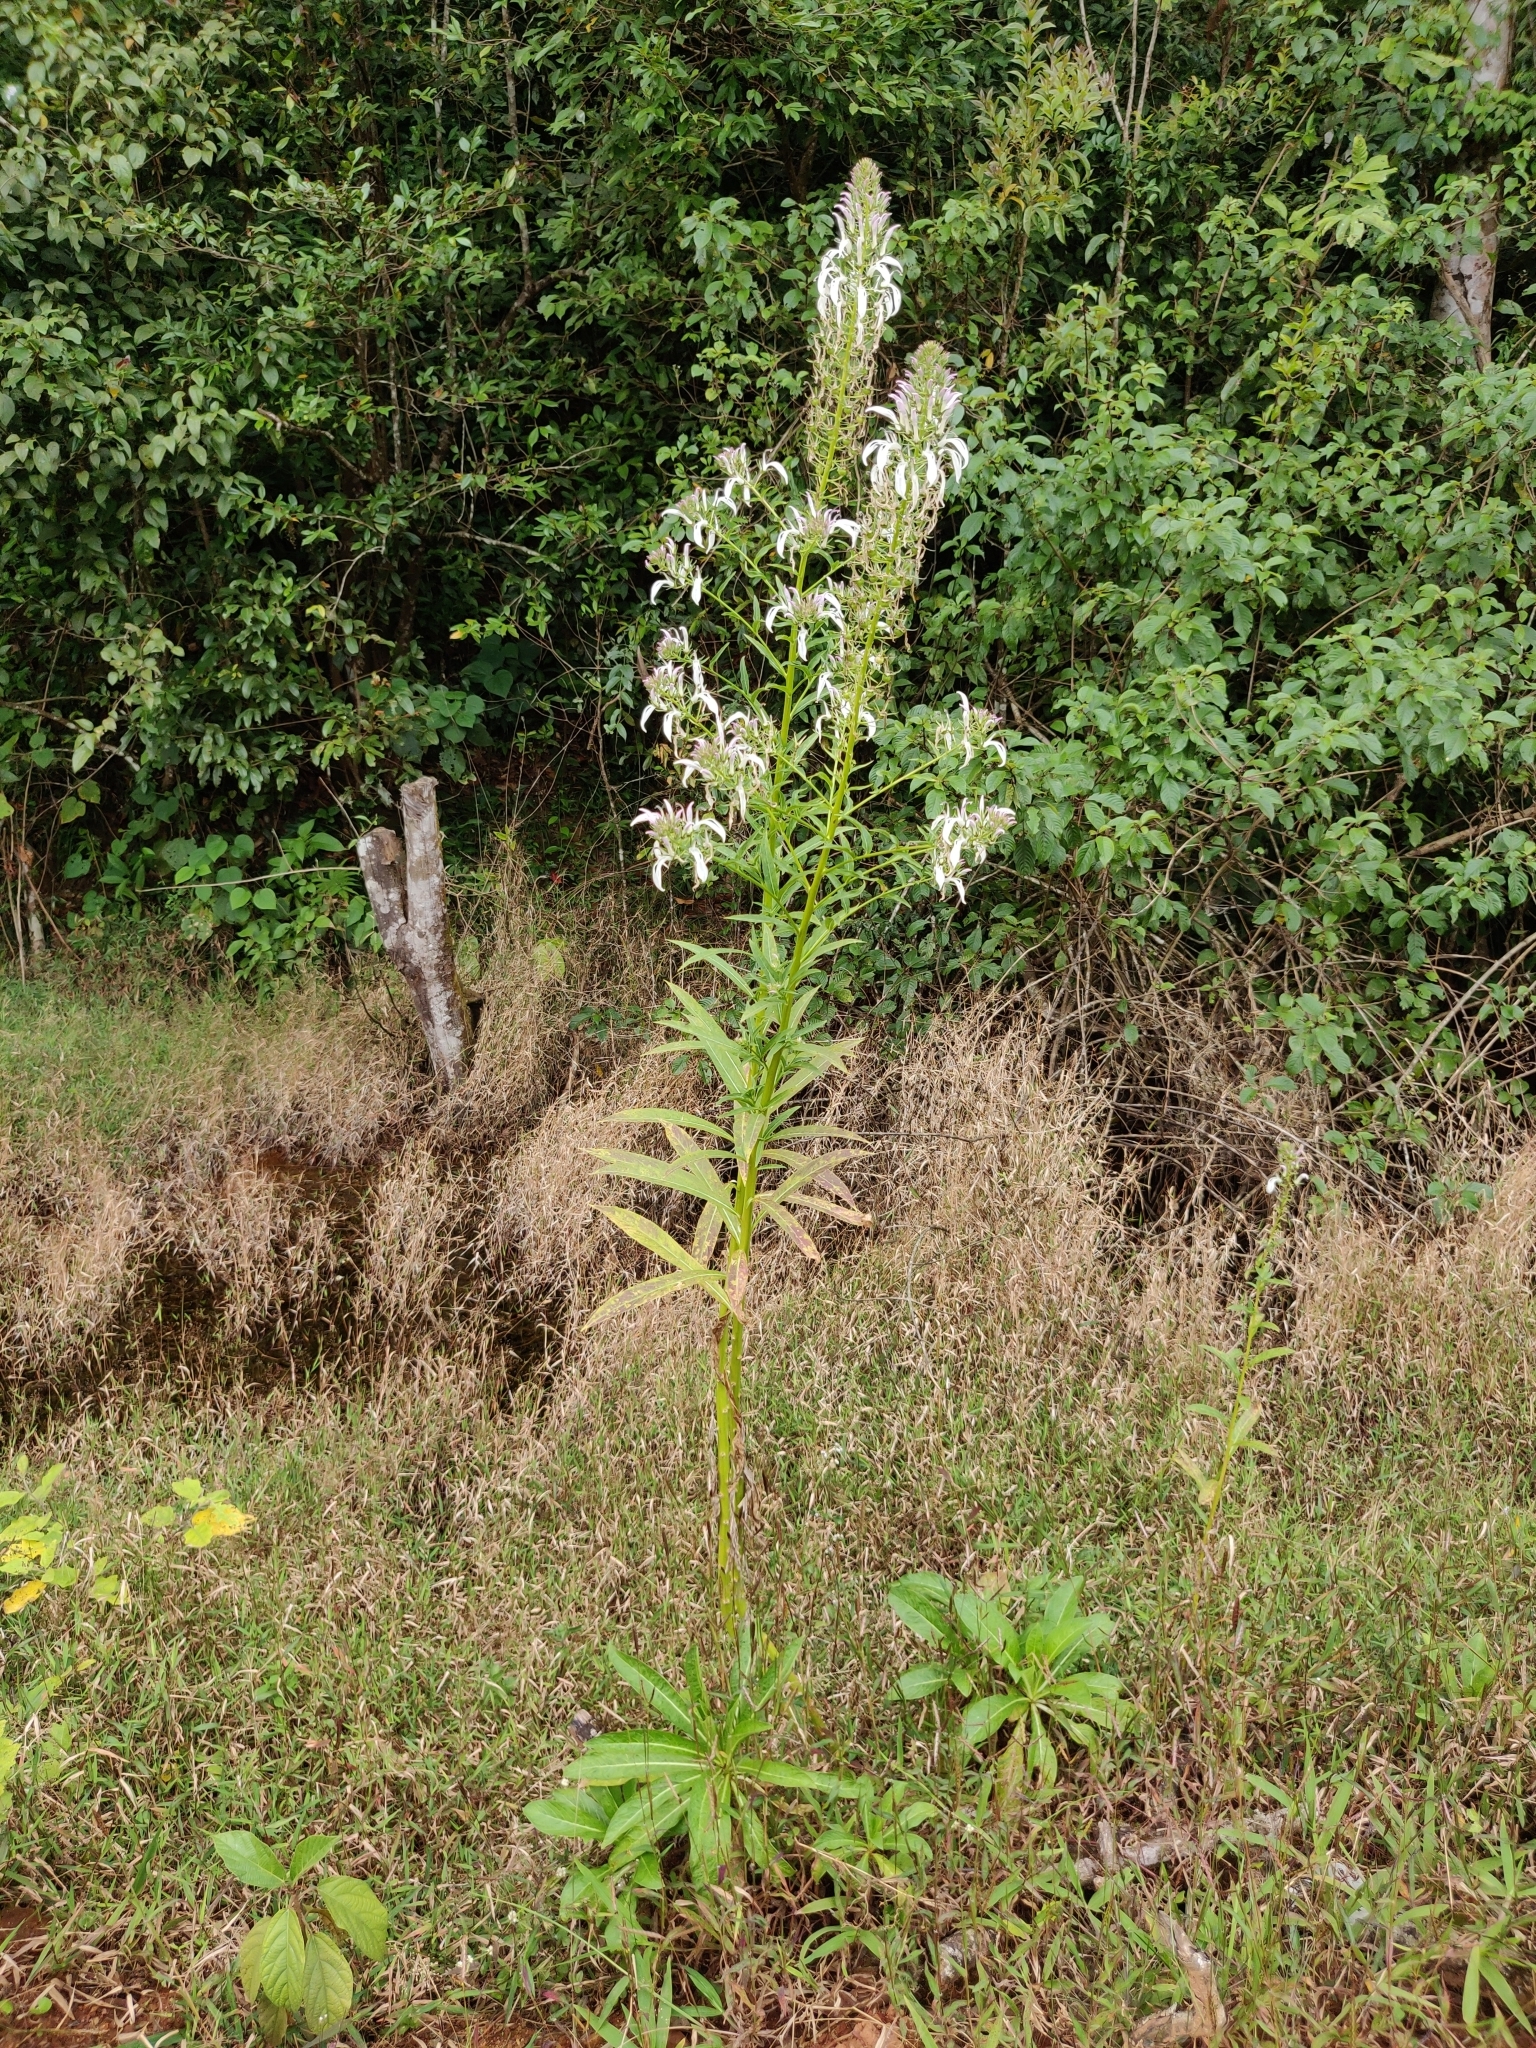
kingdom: Plantae
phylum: Tracheophyta
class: Magnoliopsida
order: Asterales
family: Campanulaceae
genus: Lobelia
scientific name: Lobelia nicotianifolia
